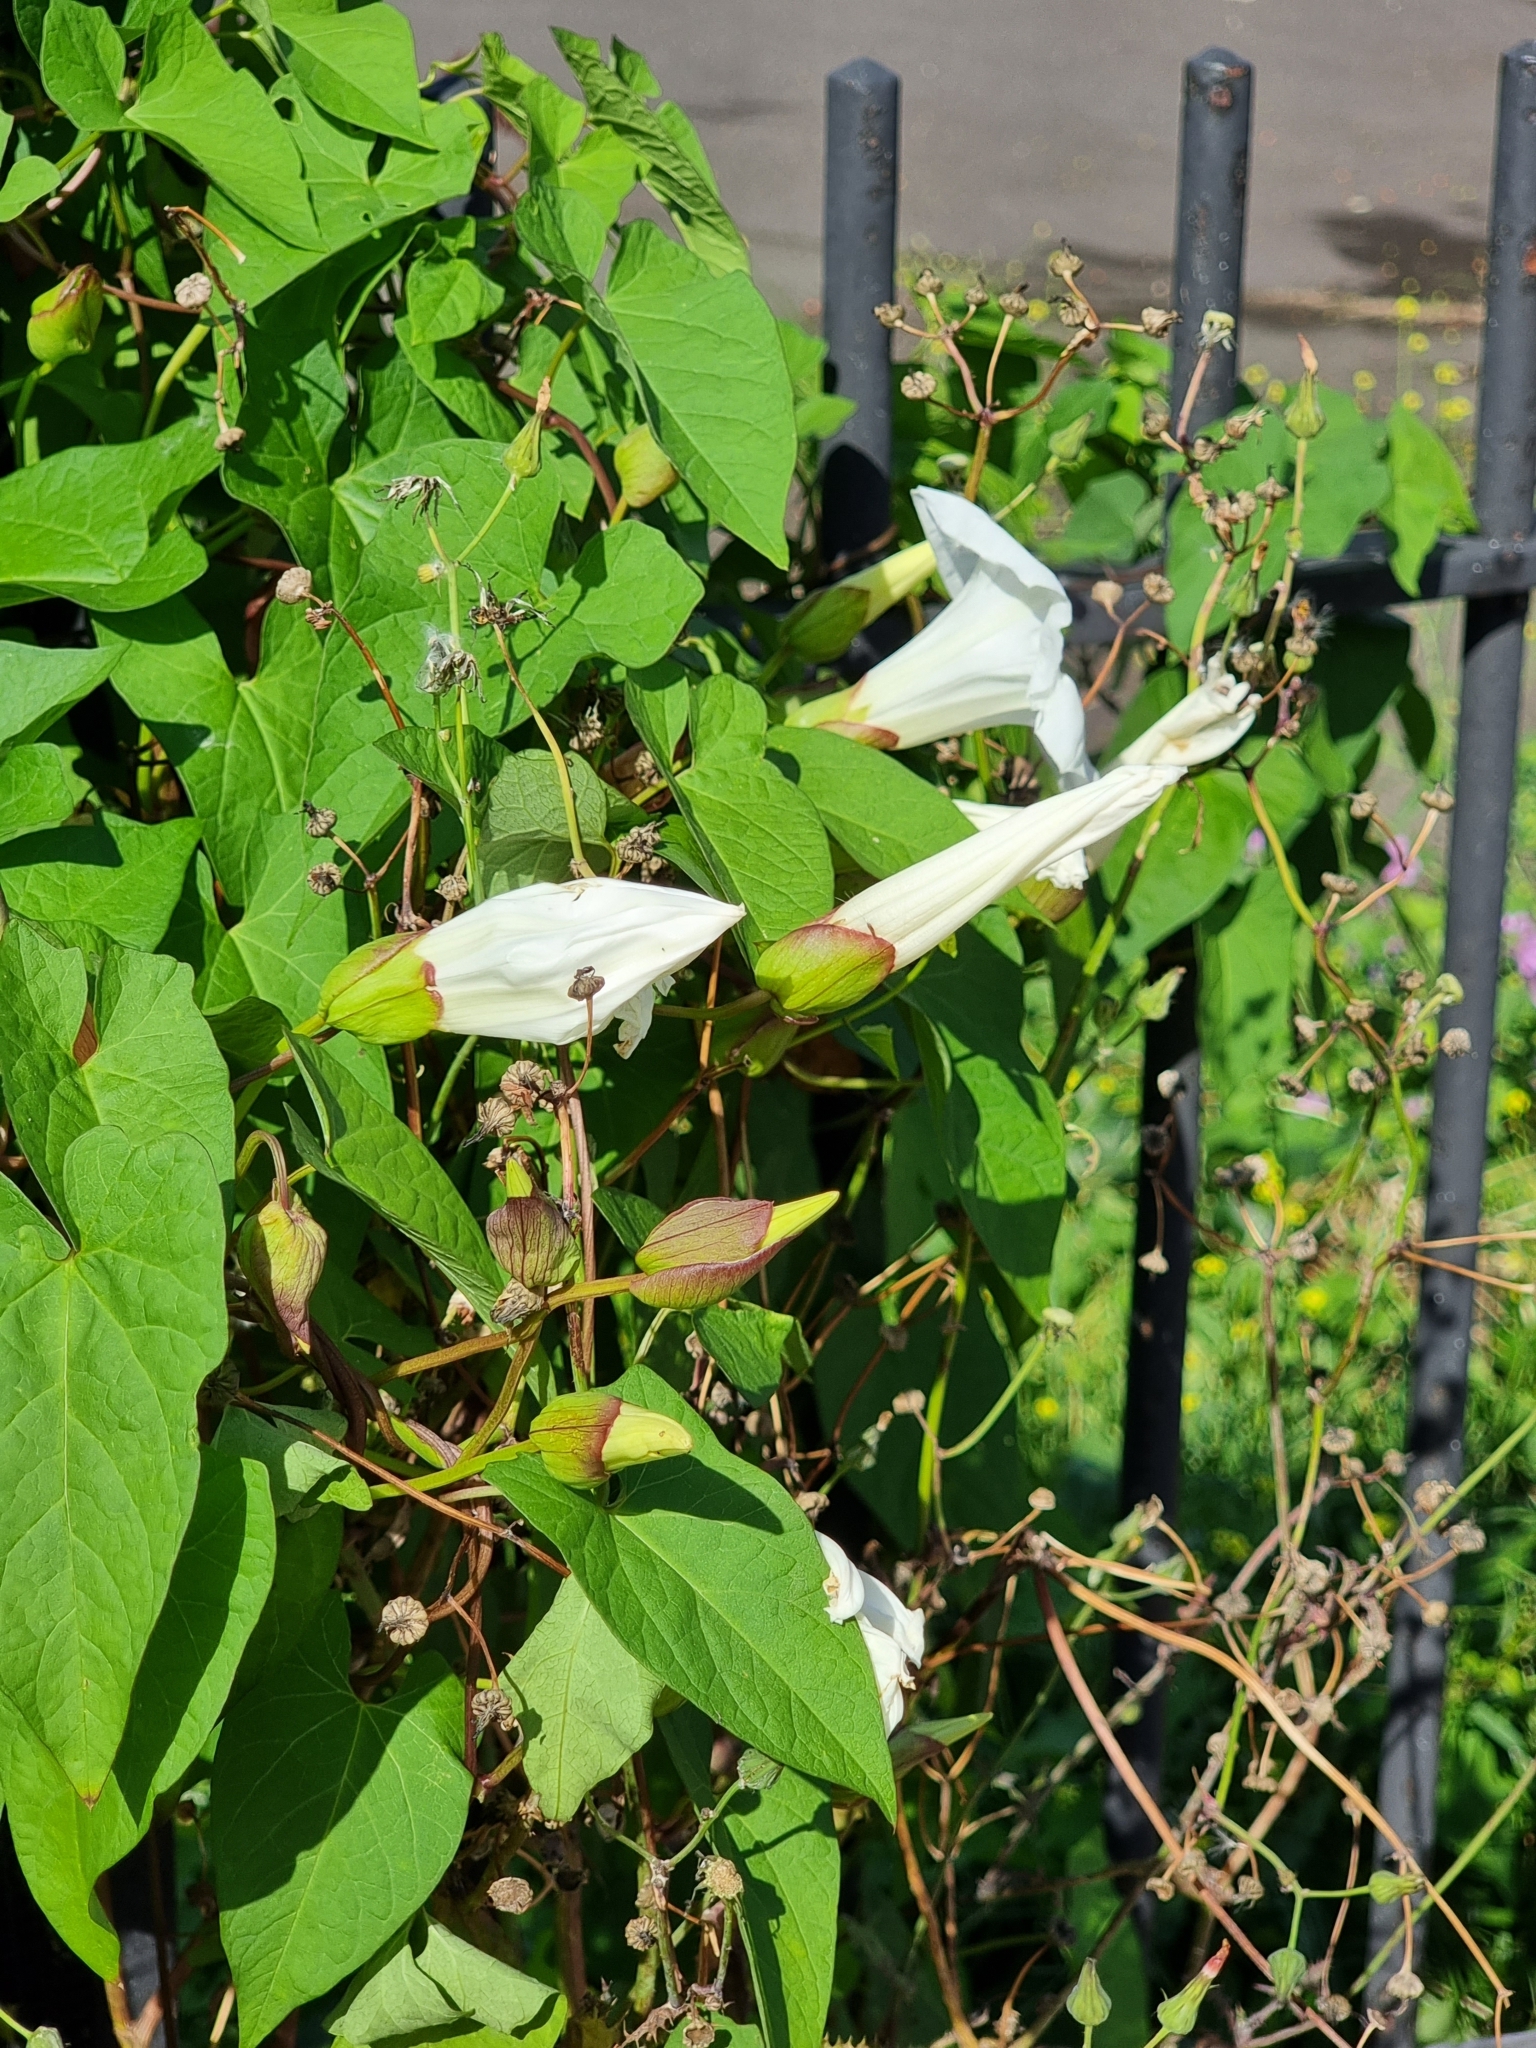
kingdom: Plantae
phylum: Tracheophyta
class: Magnoliopsida
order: Solanales
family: Convolvulaceae
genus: Calystegia
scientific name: Calystegia silvatica
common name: Large bindweed
